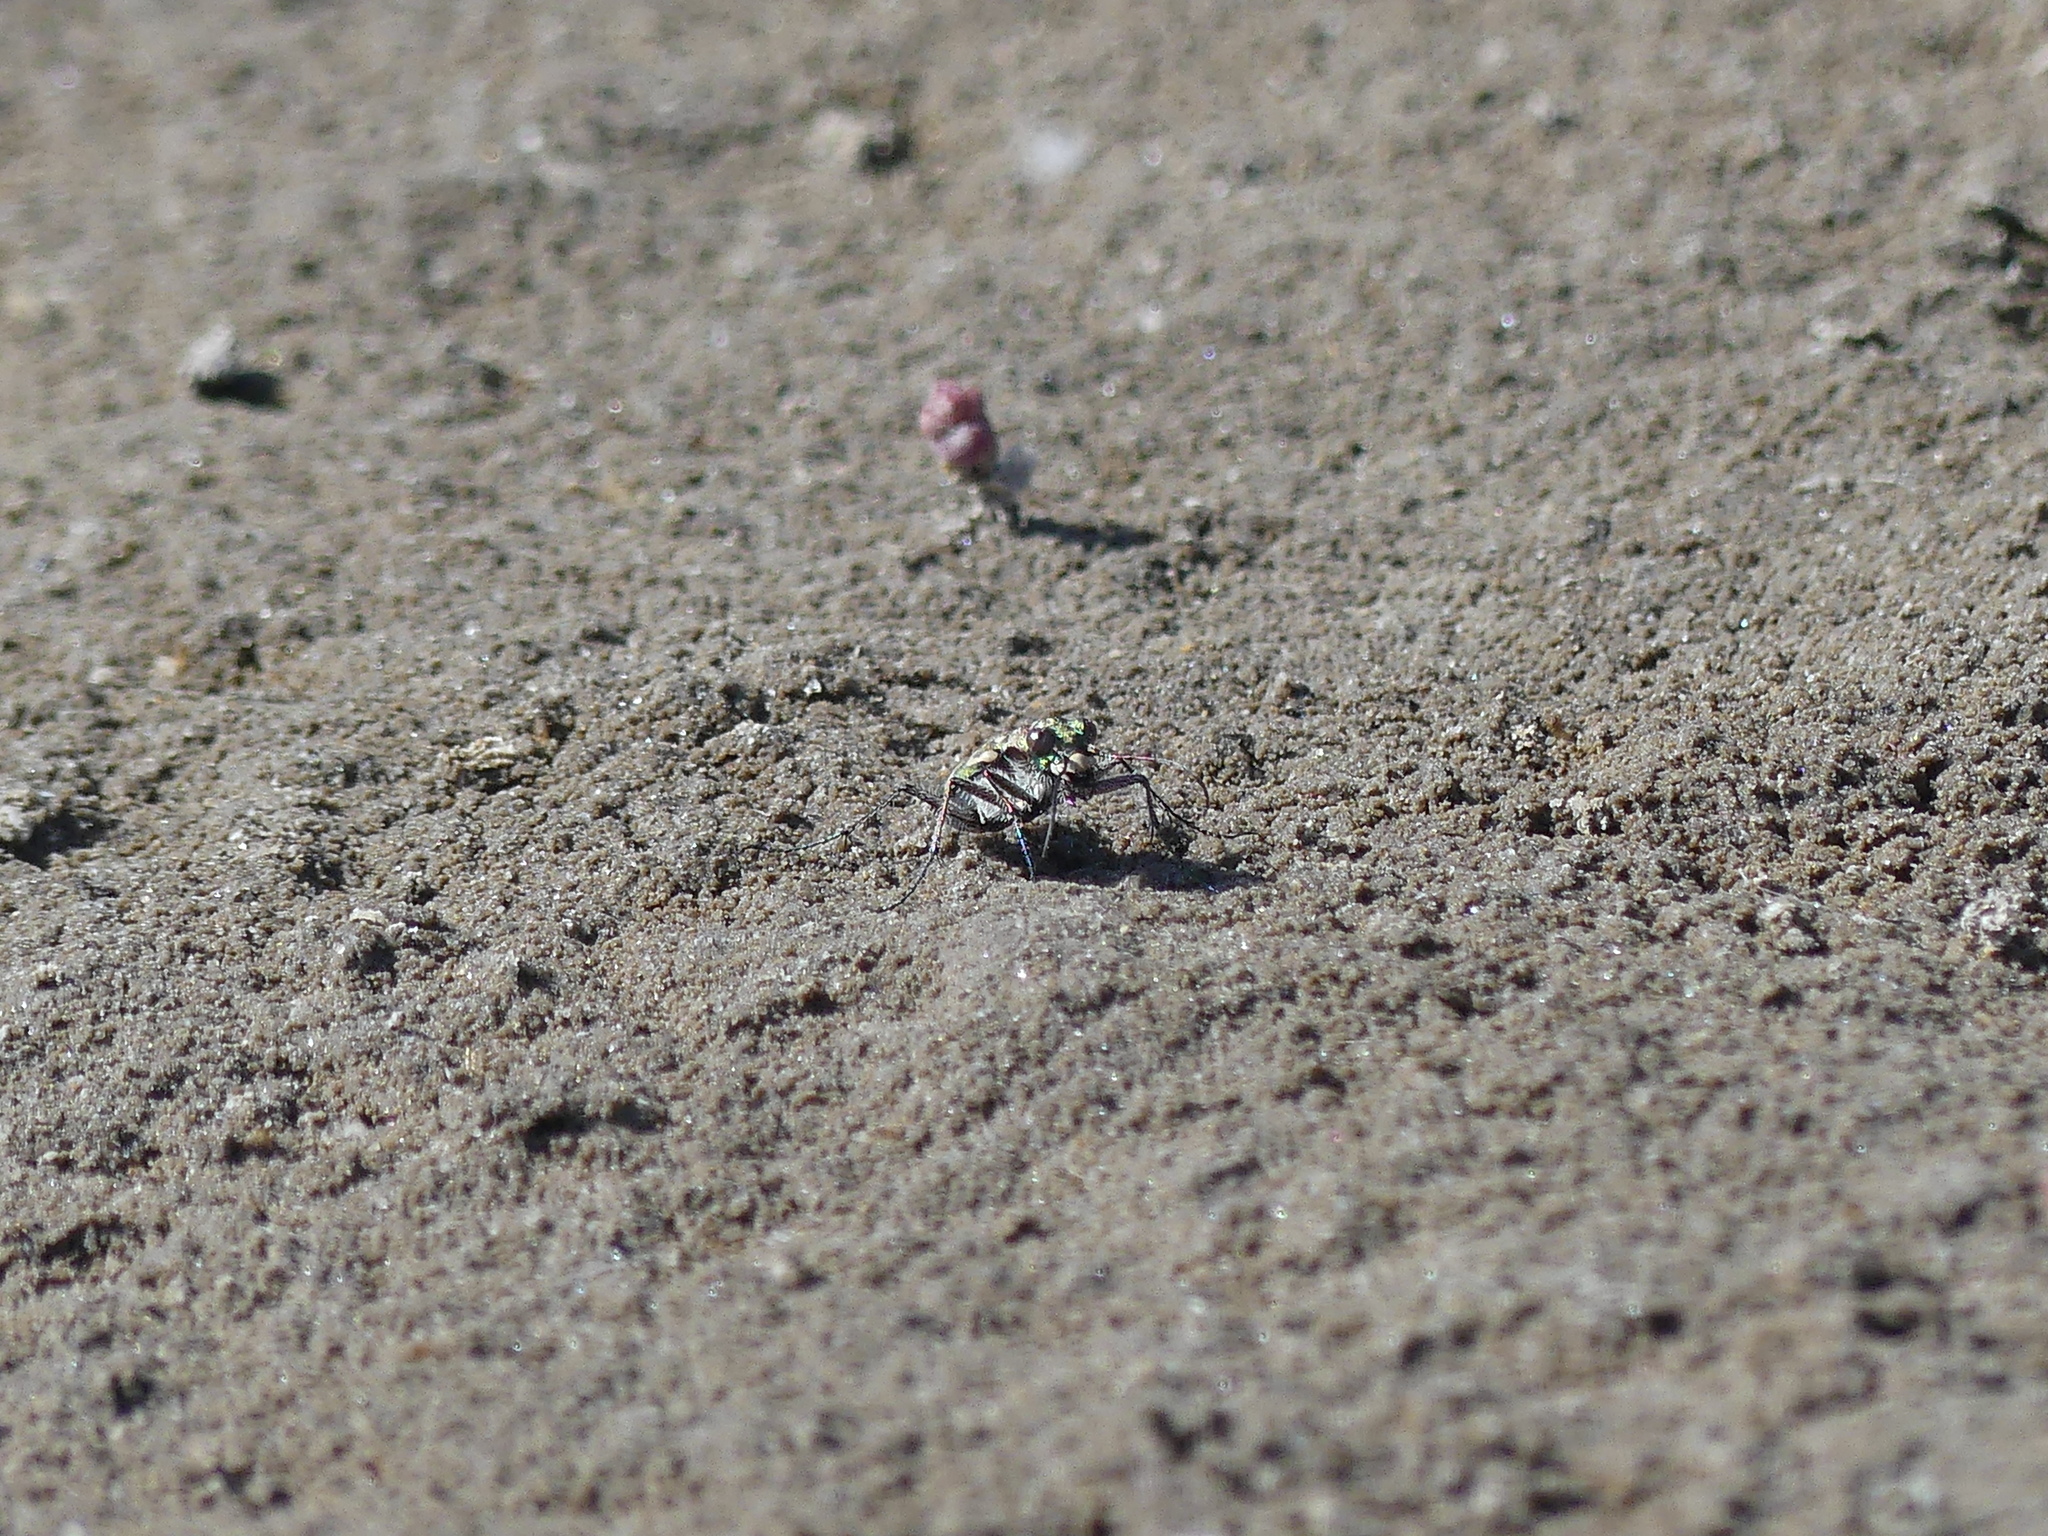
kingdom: Animalia
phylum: Arthropoda
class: Insecta
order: Coleoptera
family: Carabidae
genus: Lophyra
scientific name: Lophyra flexuosa
